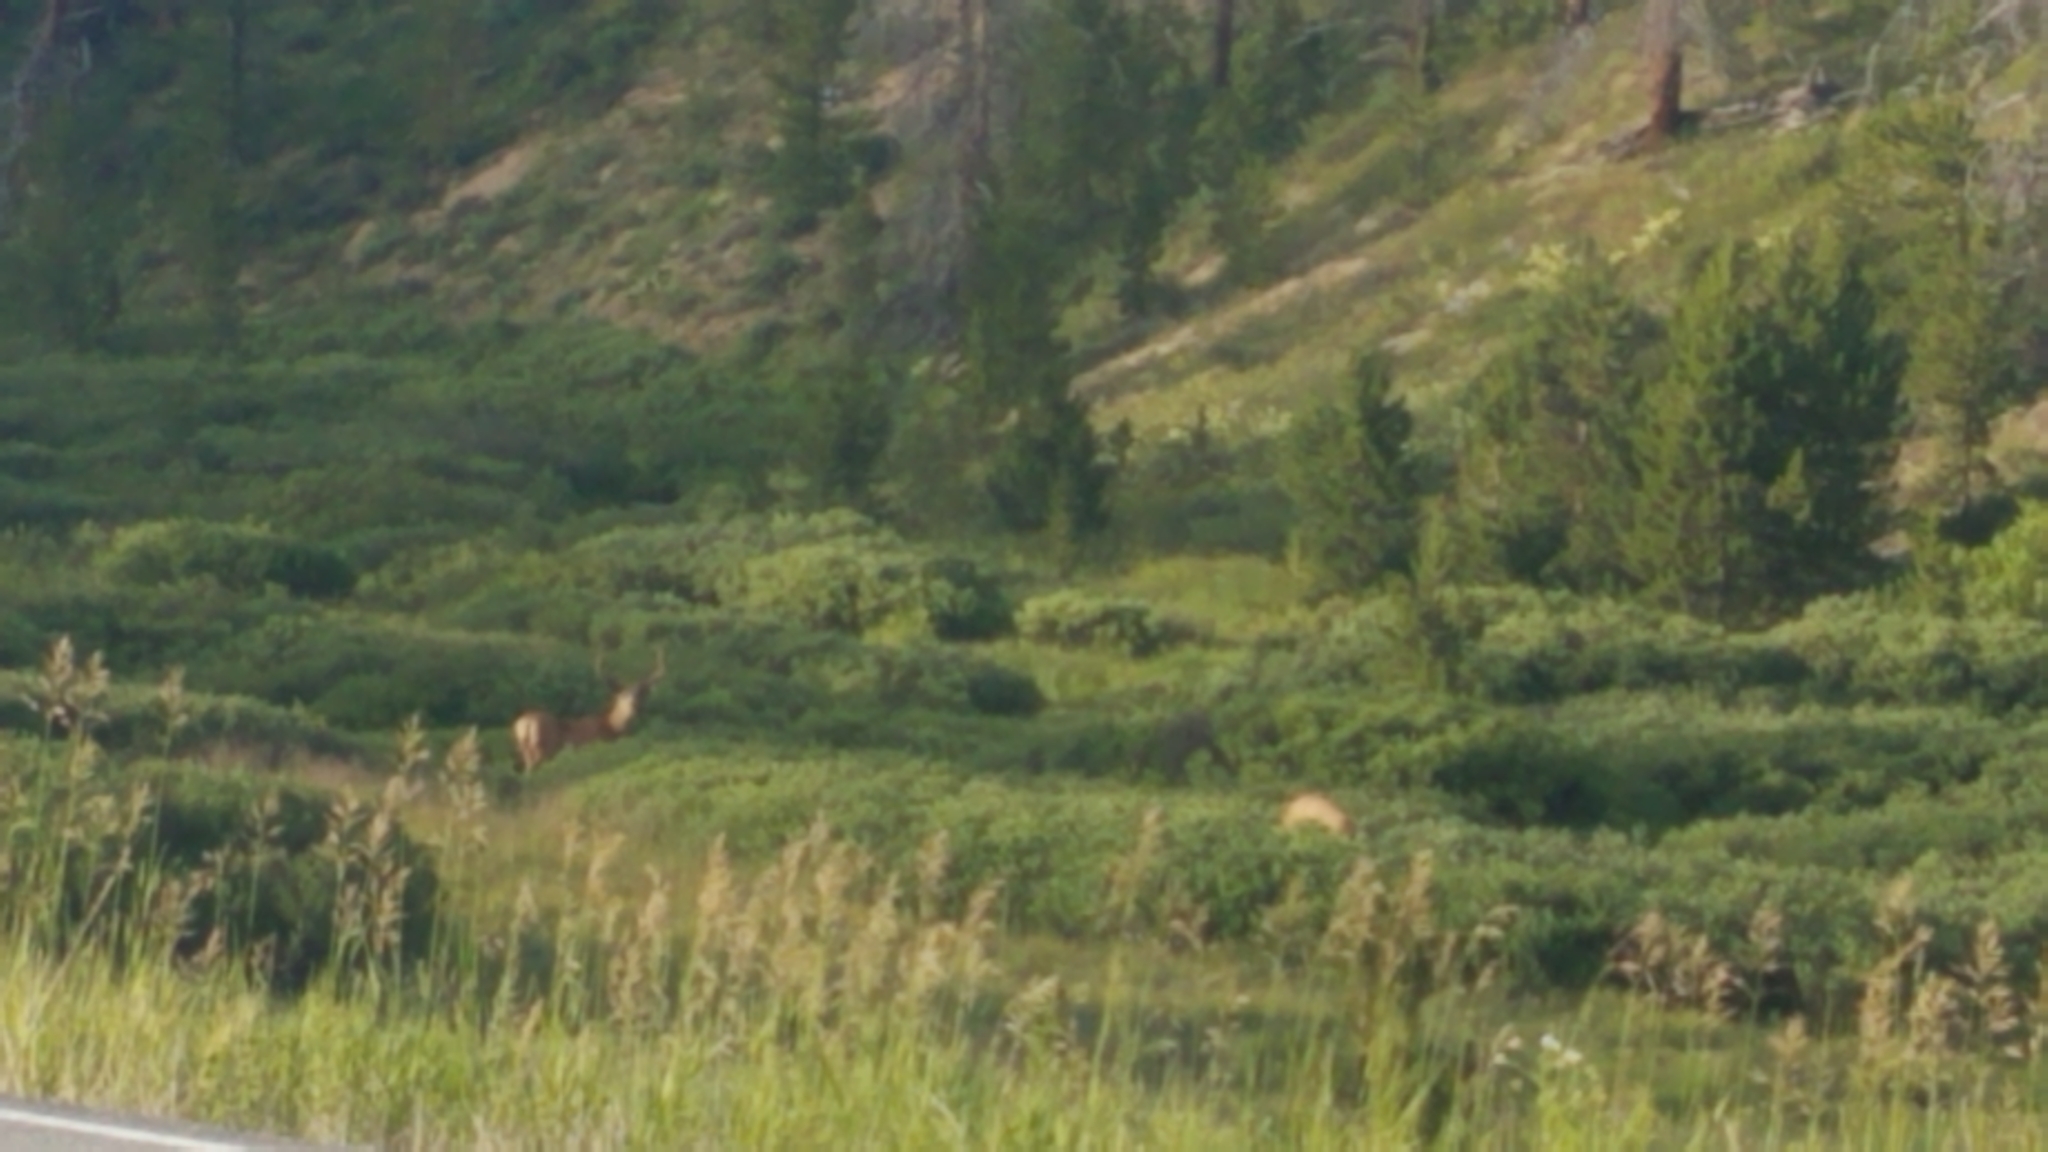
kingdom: Animalia
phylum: Chordata
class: Mammalia
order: Artiodactyla
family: Cervidae
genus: Odocoileus
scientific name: Odocoileus hemionus
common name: Mule deer
